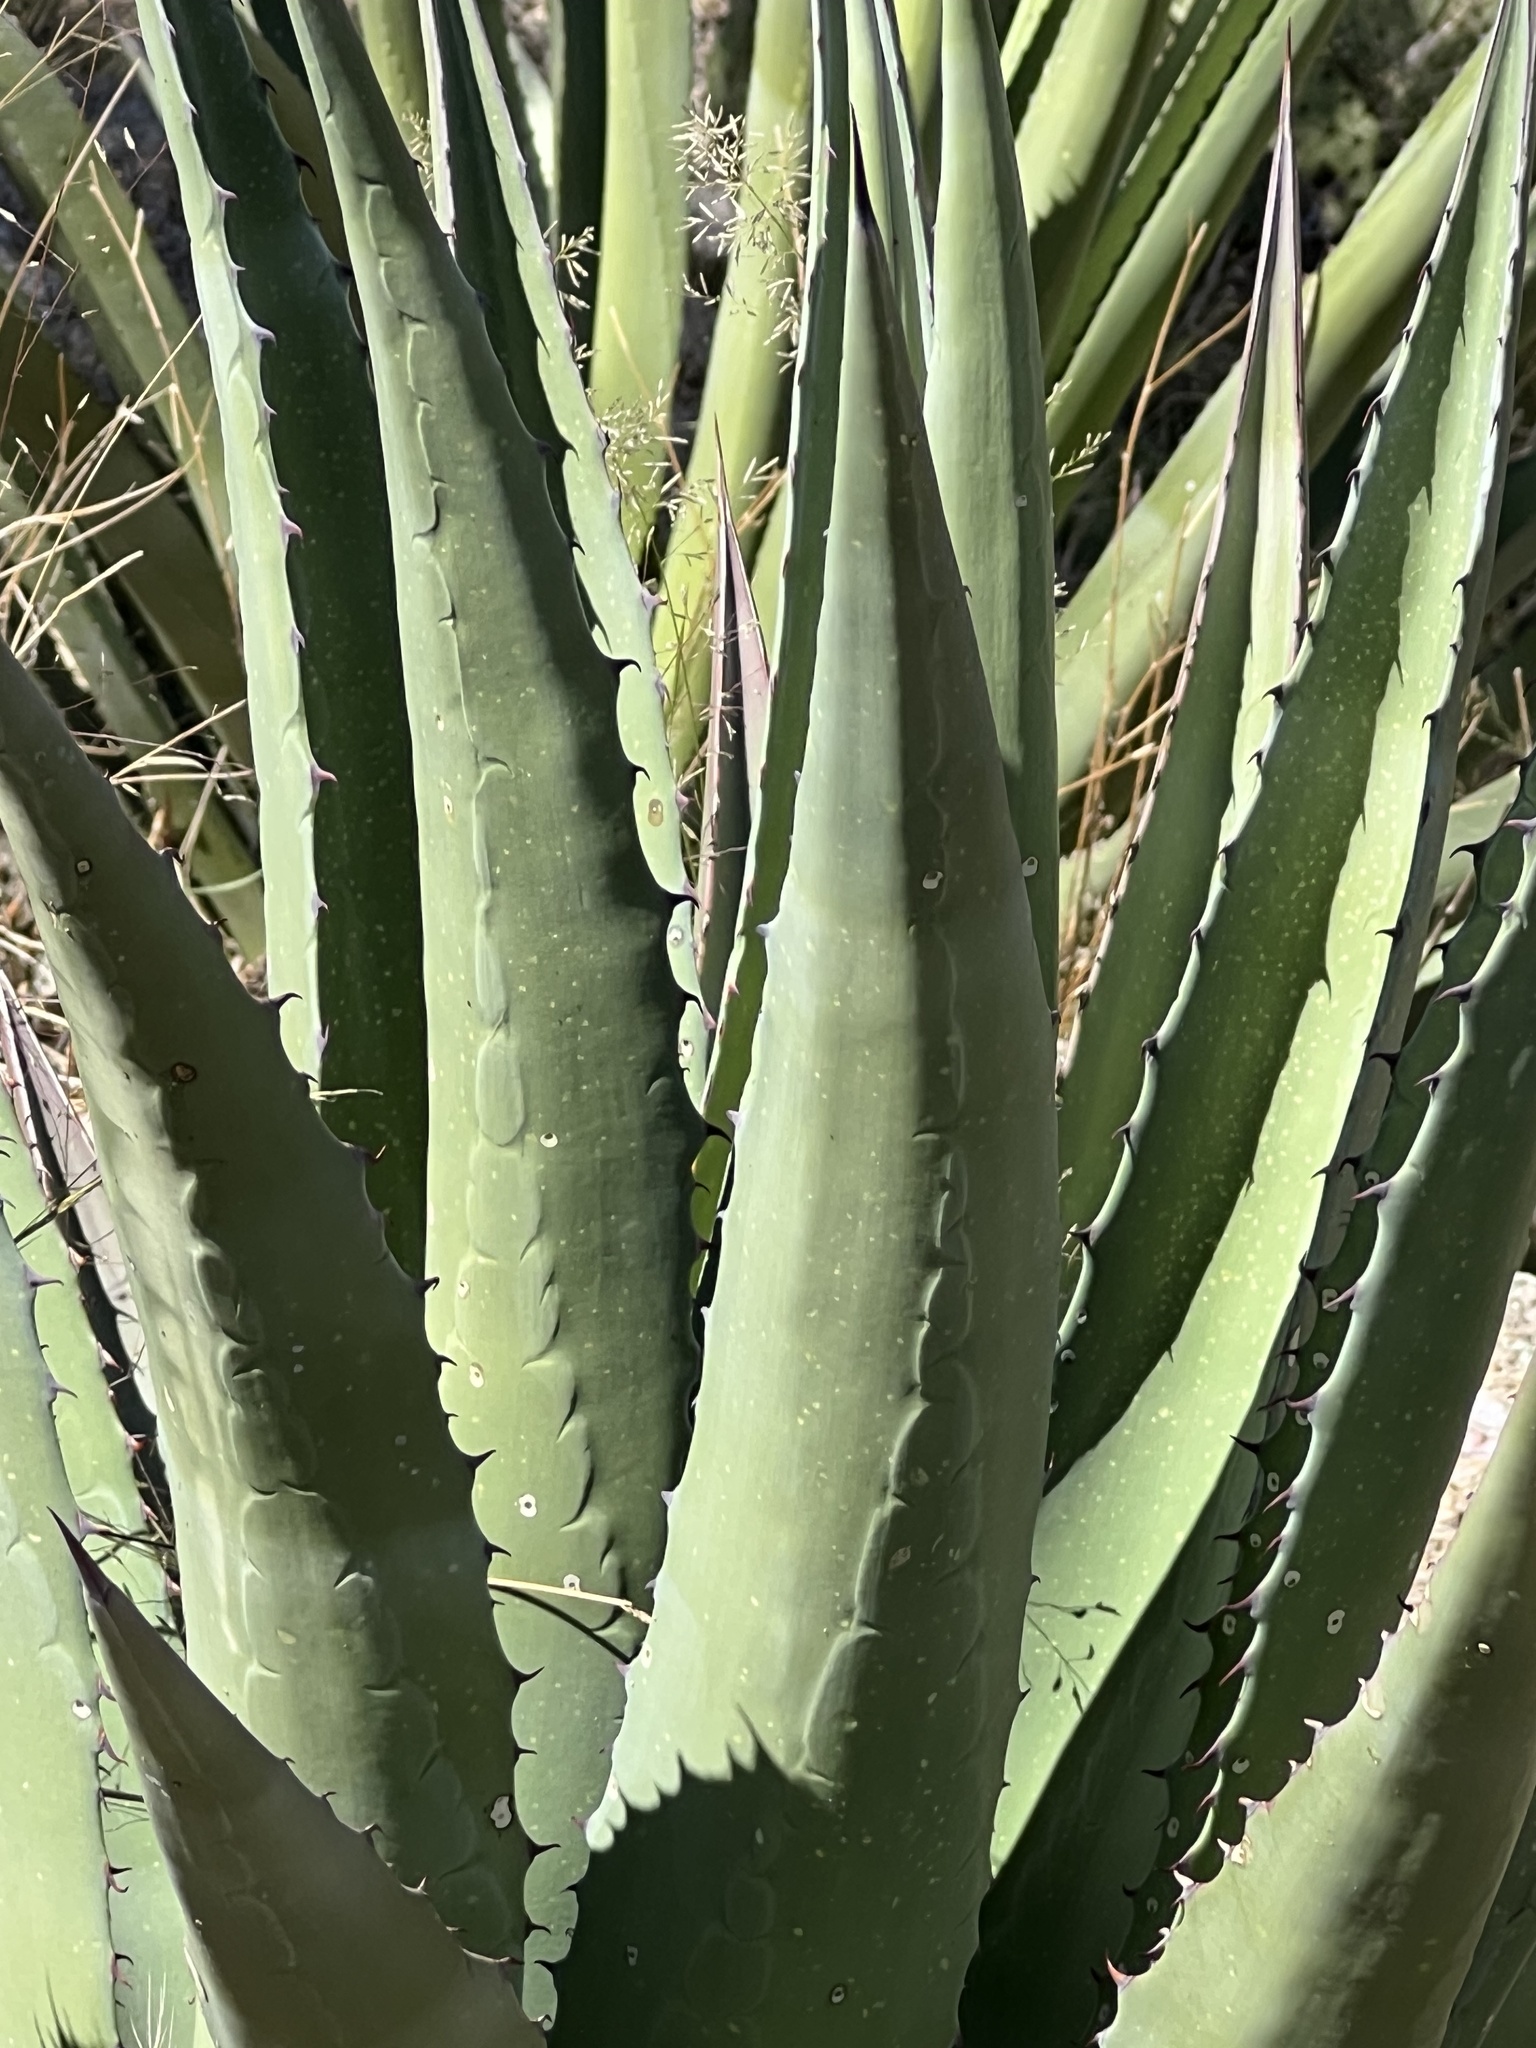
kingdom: Plantae
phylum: Tracheophyta
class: Liliopsida
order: Asparagales
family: Asparagaceae
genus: Agave
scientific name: Agave palmeri
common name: Palmer agave
